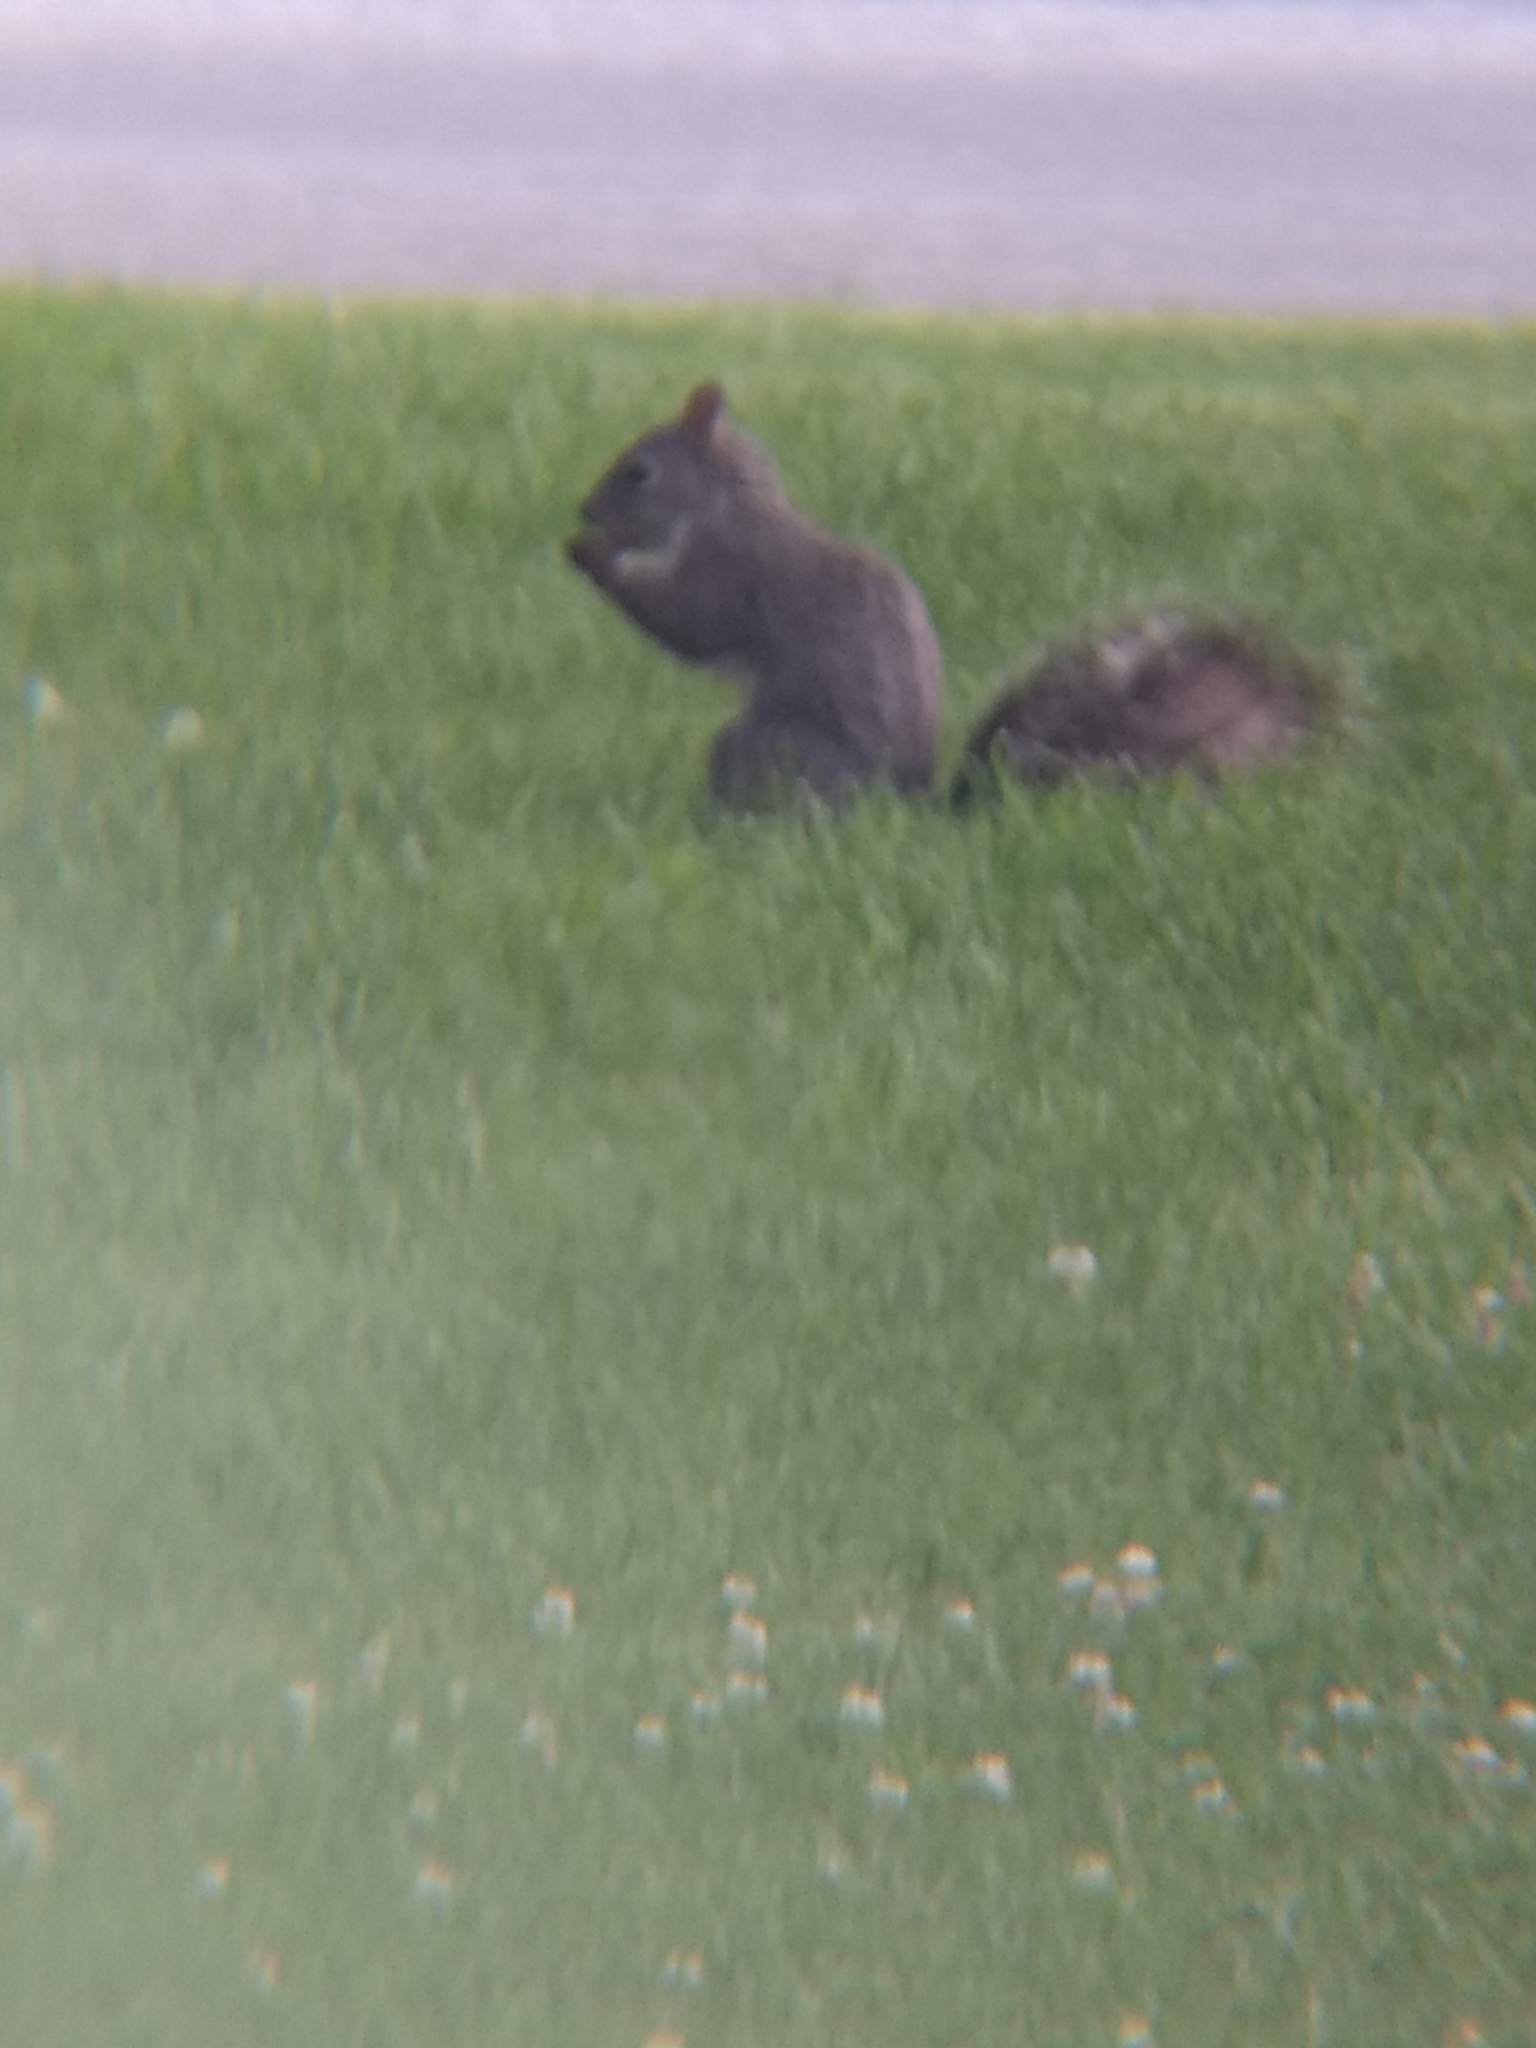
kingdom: Animalia
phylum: Chordata
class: Mammalia
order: Rodentia
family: Sciuridae
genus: Sciurus
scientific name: Sciurus griseus
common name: Western gray squirrel
